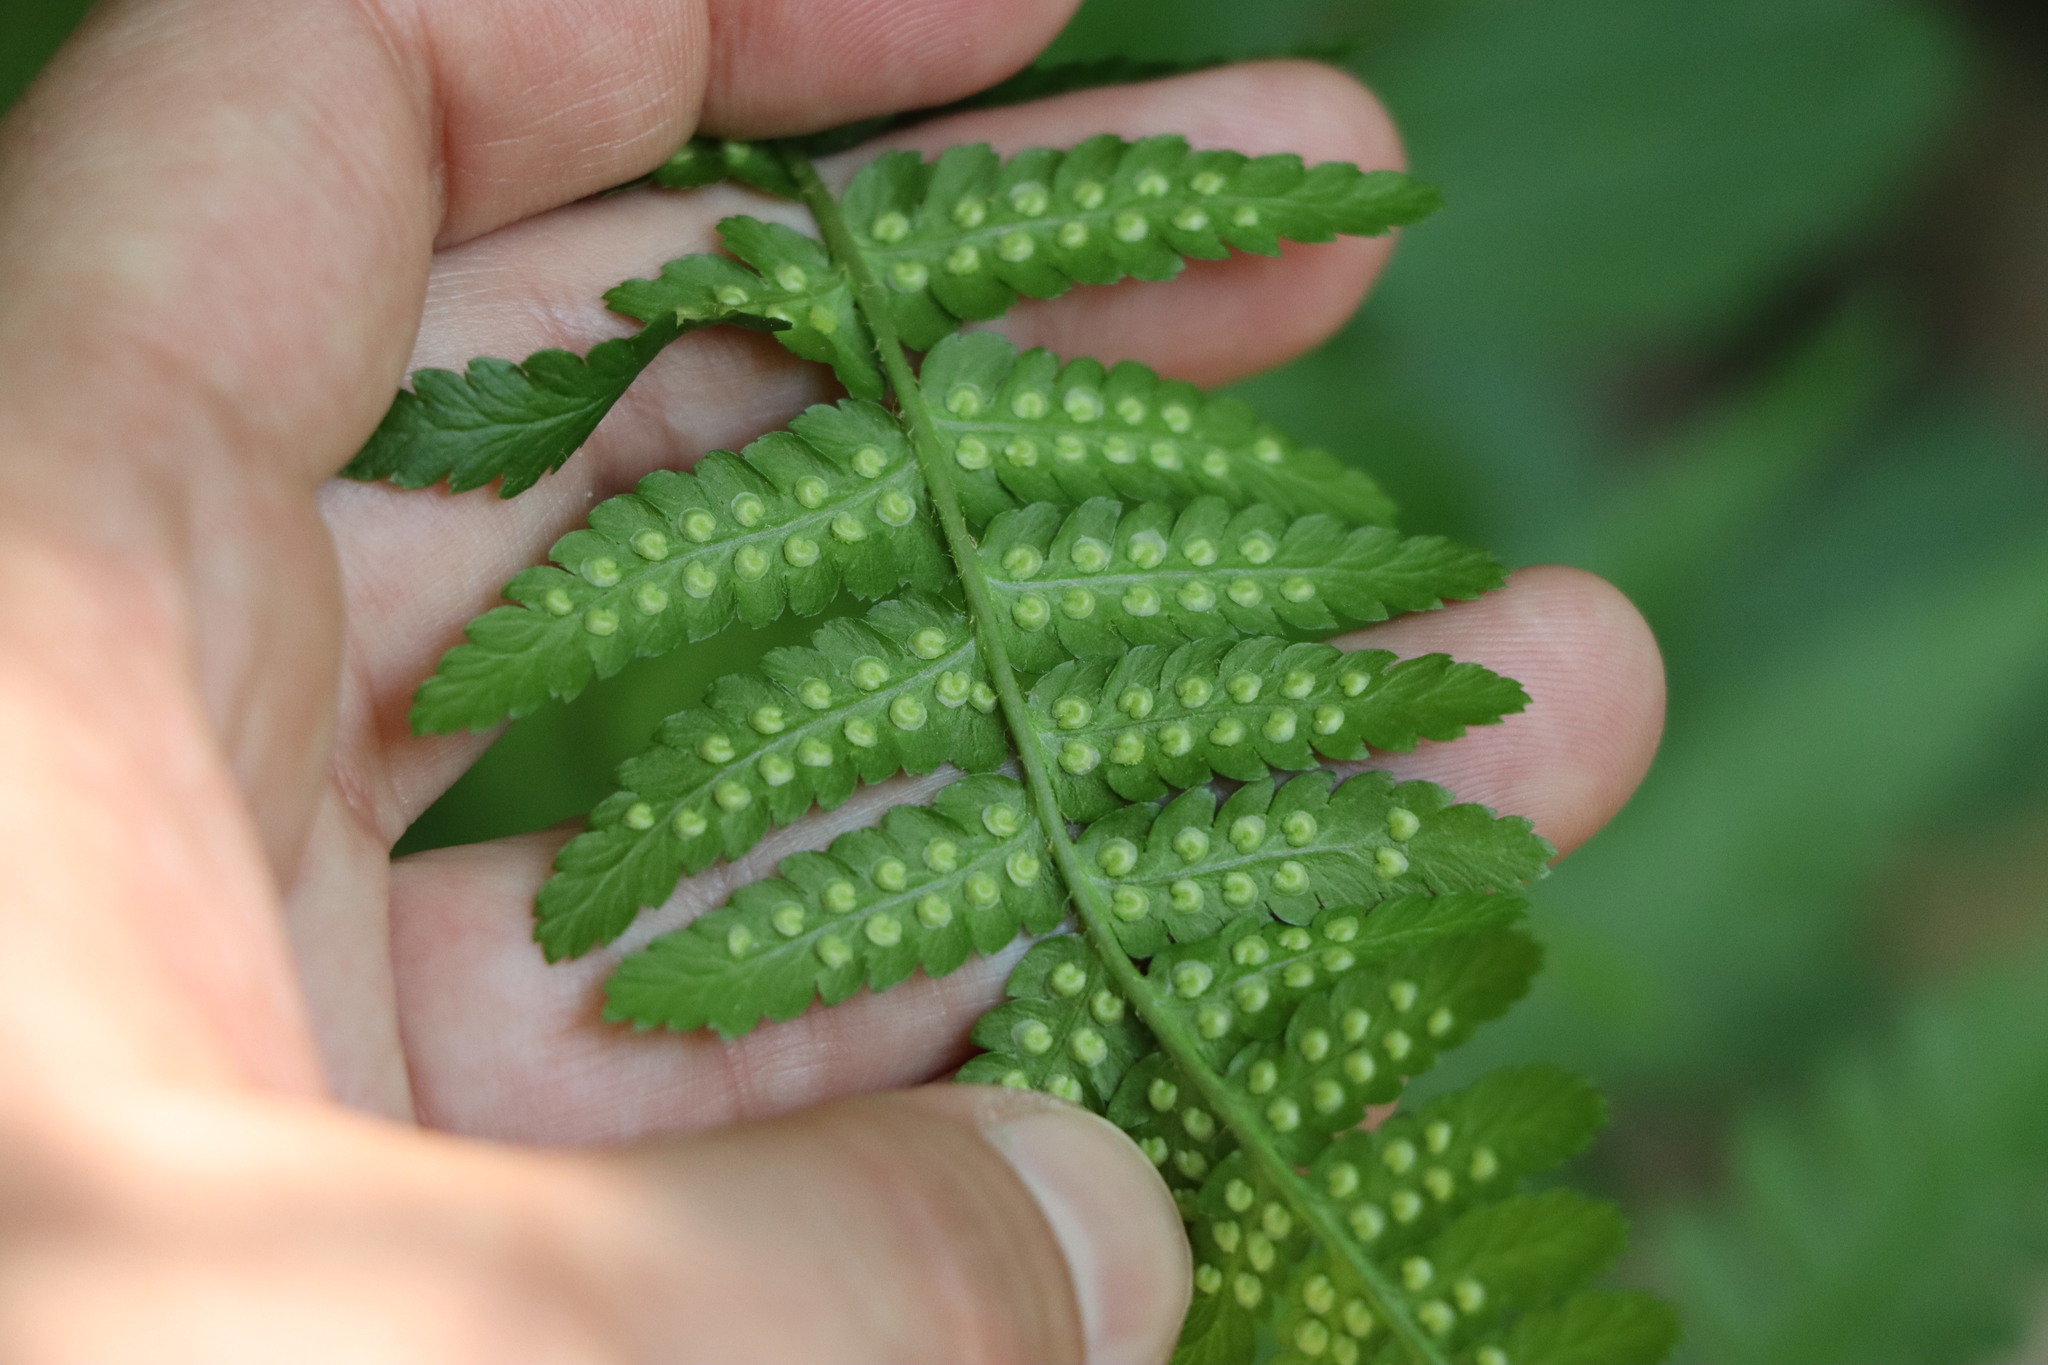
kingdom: Plantae
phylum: Tracheophyta
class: Polypodiopsida
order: Polypodiales
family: Dryopteridaceae
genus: Dryopteris
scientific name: Dryopteris filix-mas
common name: Male fern
